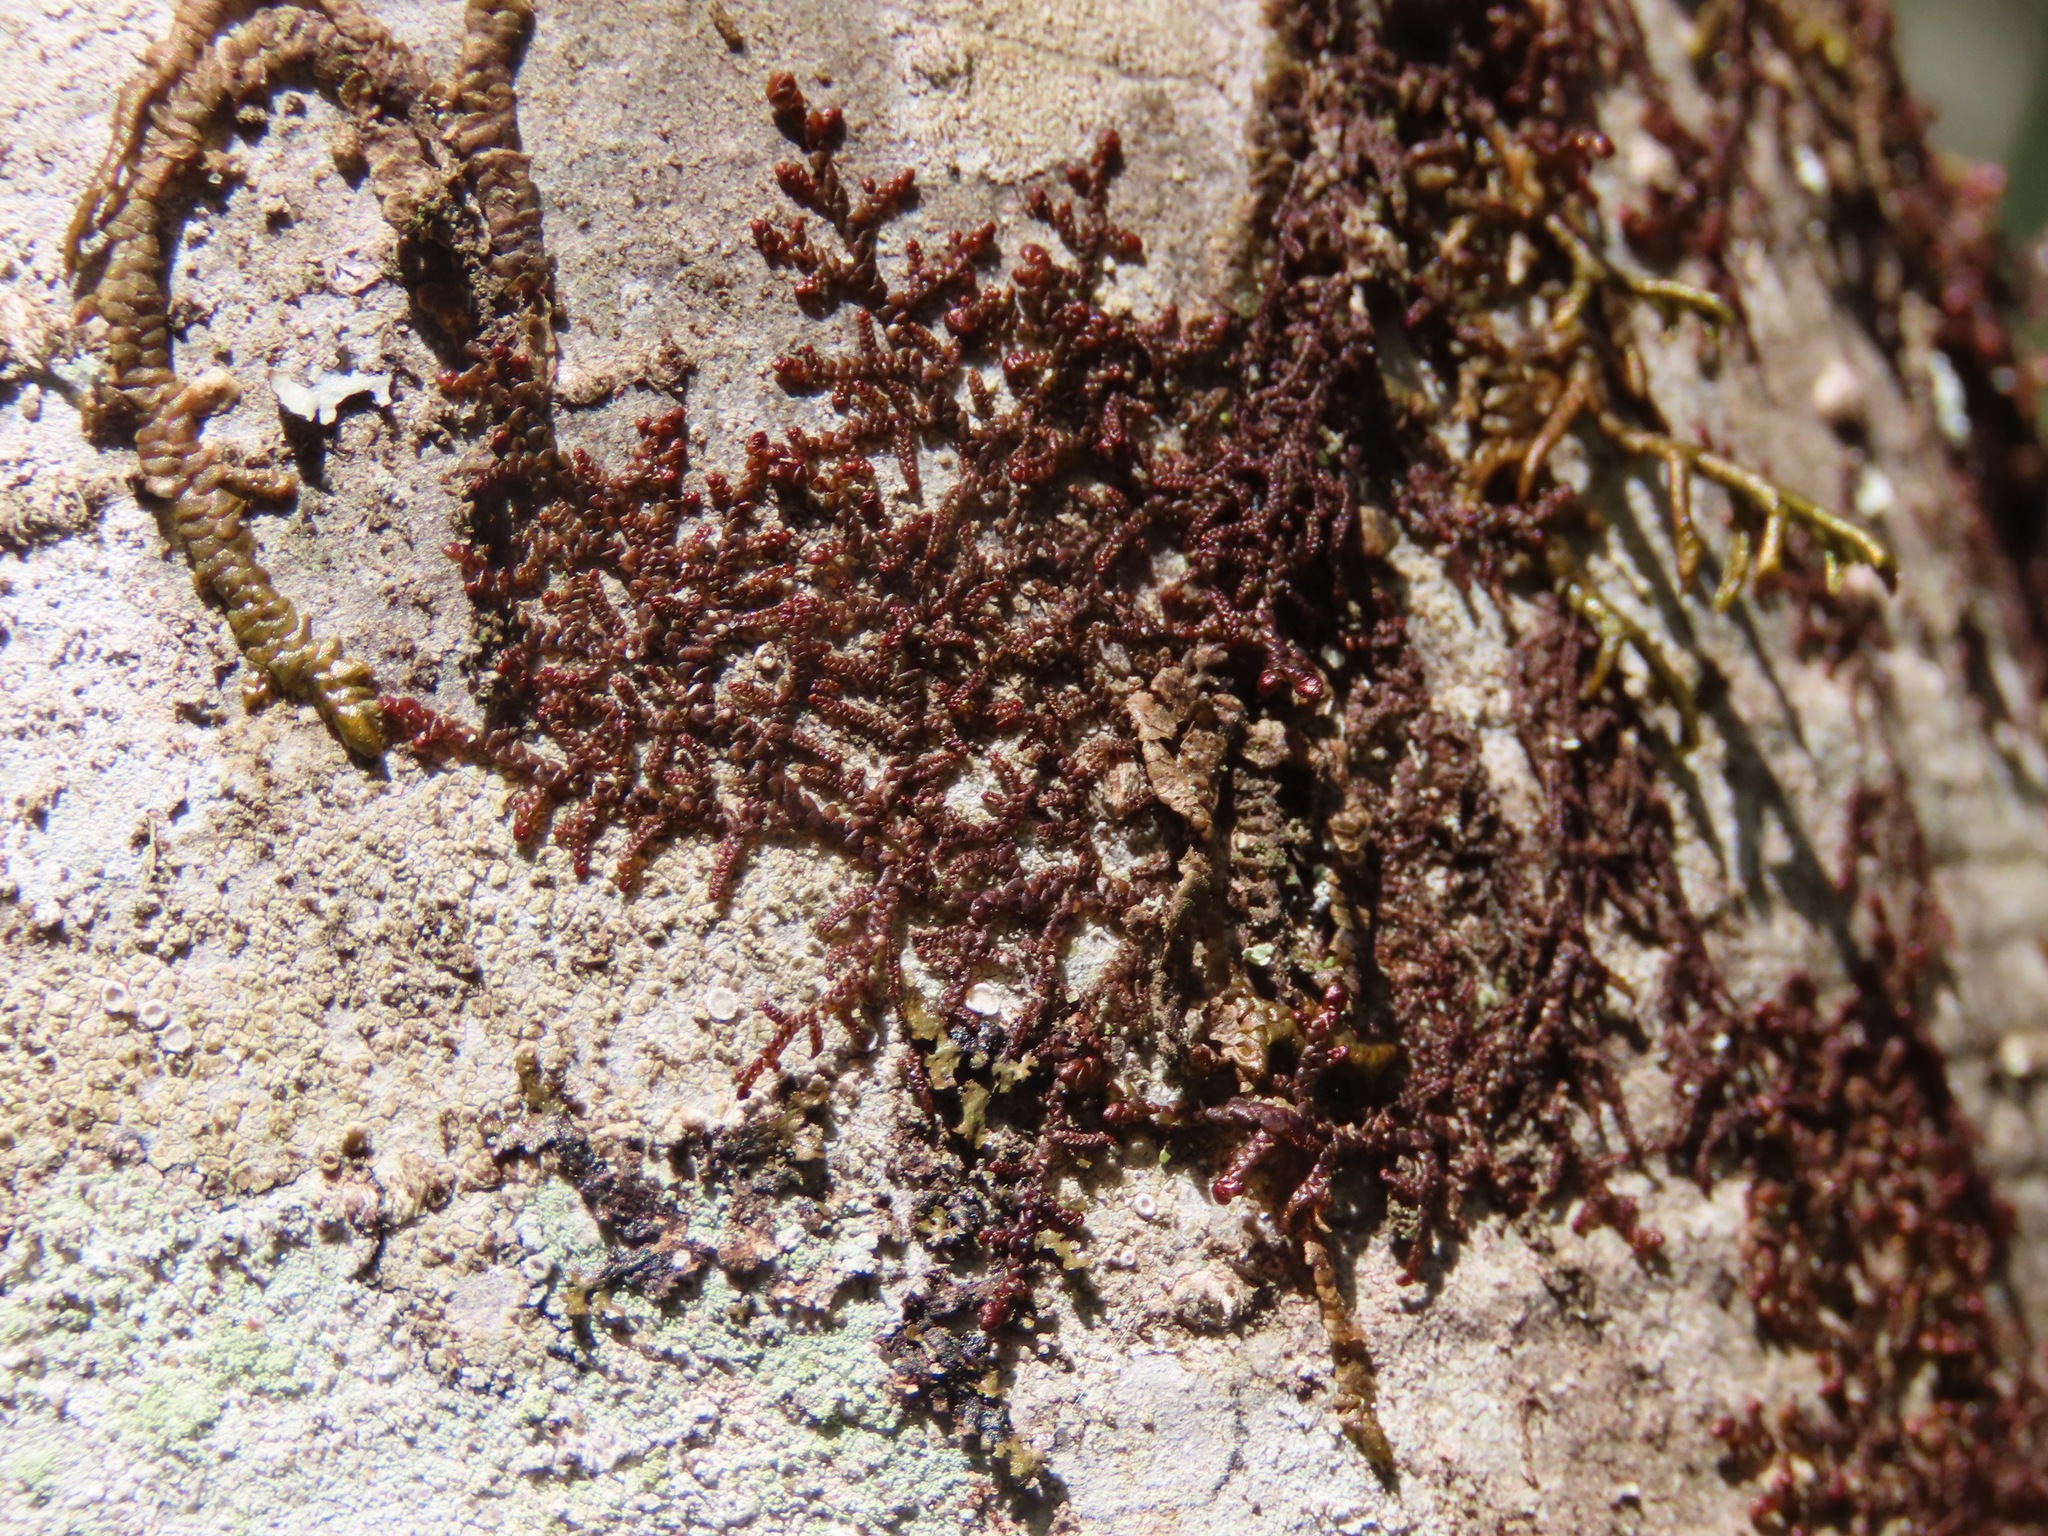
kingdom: Plantae
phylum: Marchantiophyta
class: Jungermanniopsida
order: Porellales
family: Frullaniaceae
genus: Frullania
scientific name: Frullania nisquallensis
